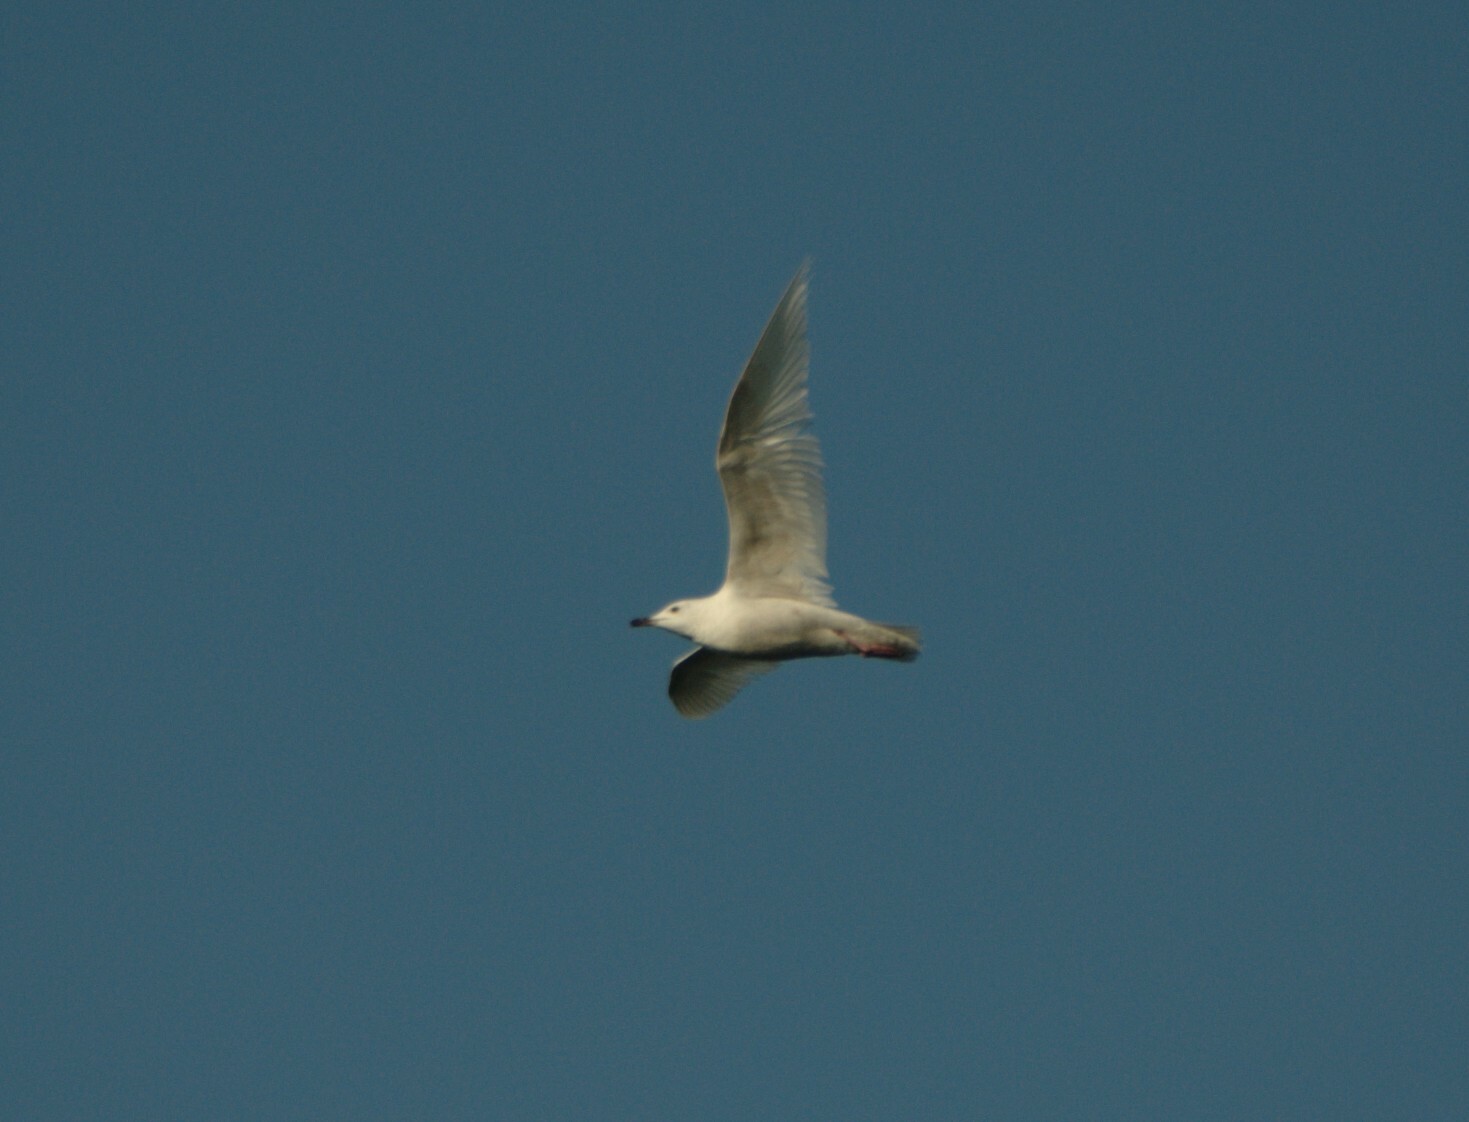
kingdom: Animalia
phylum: Chordata
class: Aves
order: Charadriiformes
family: Laridae
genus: Larus
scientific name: Larus glaucoides
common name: Iceland gull
